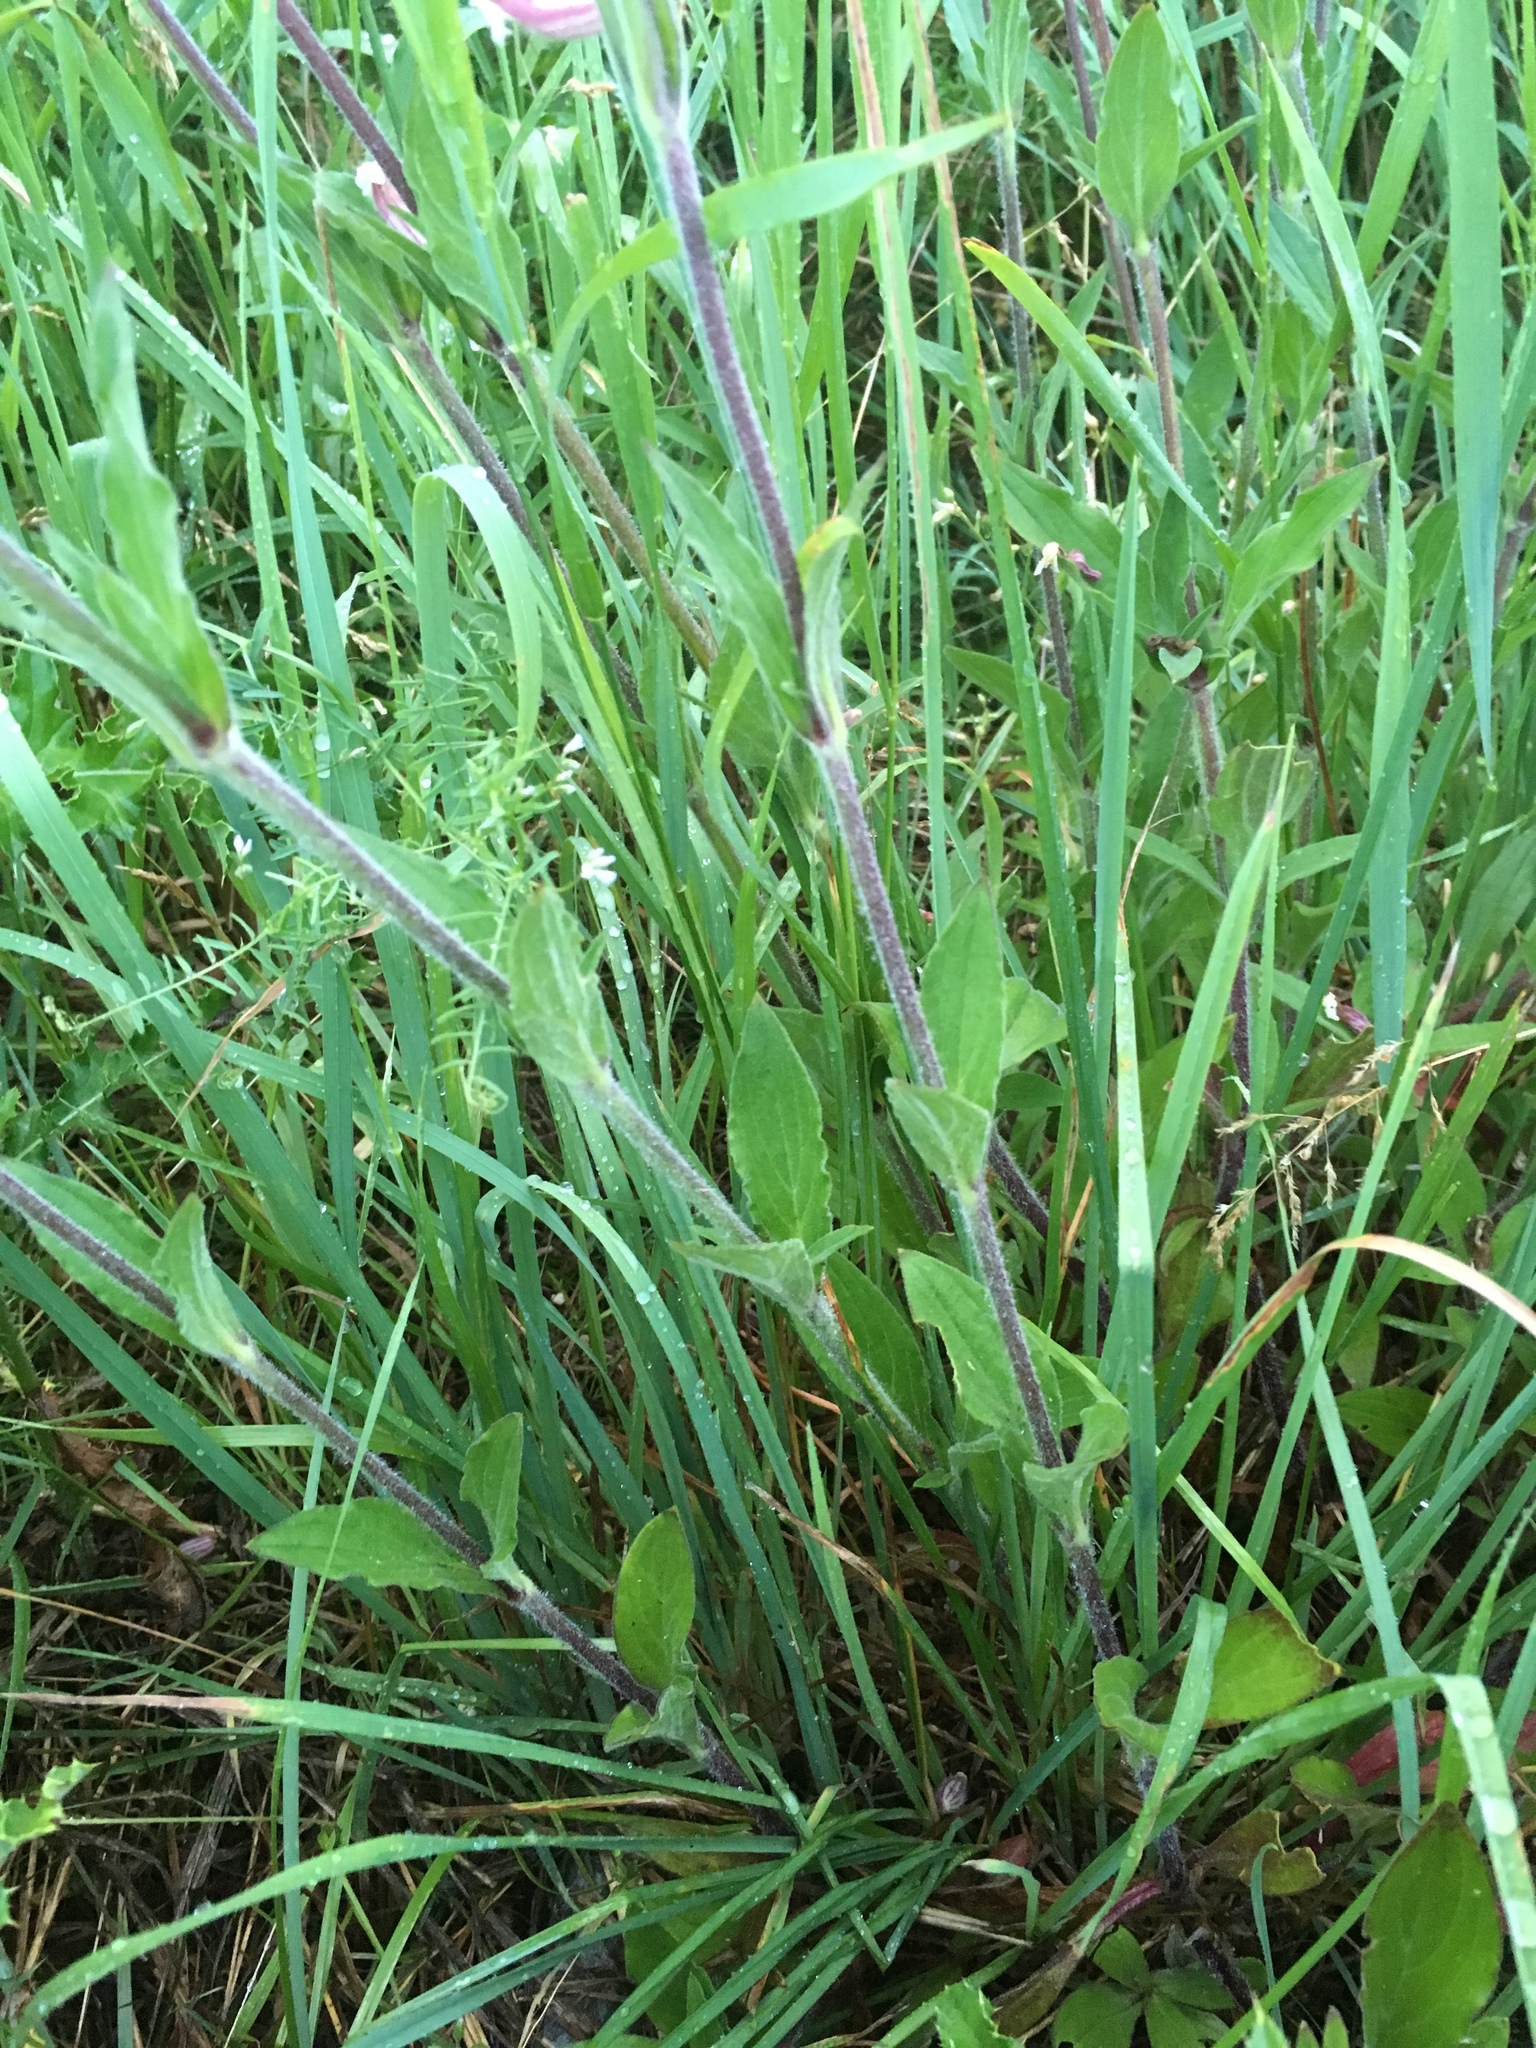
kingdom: Plantae
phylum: Tracheophyta
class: Magnoliopsida
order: Caryophyllales
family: Caryophyllaceae
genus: Silene
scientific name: Silene latifolia
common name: White campion
